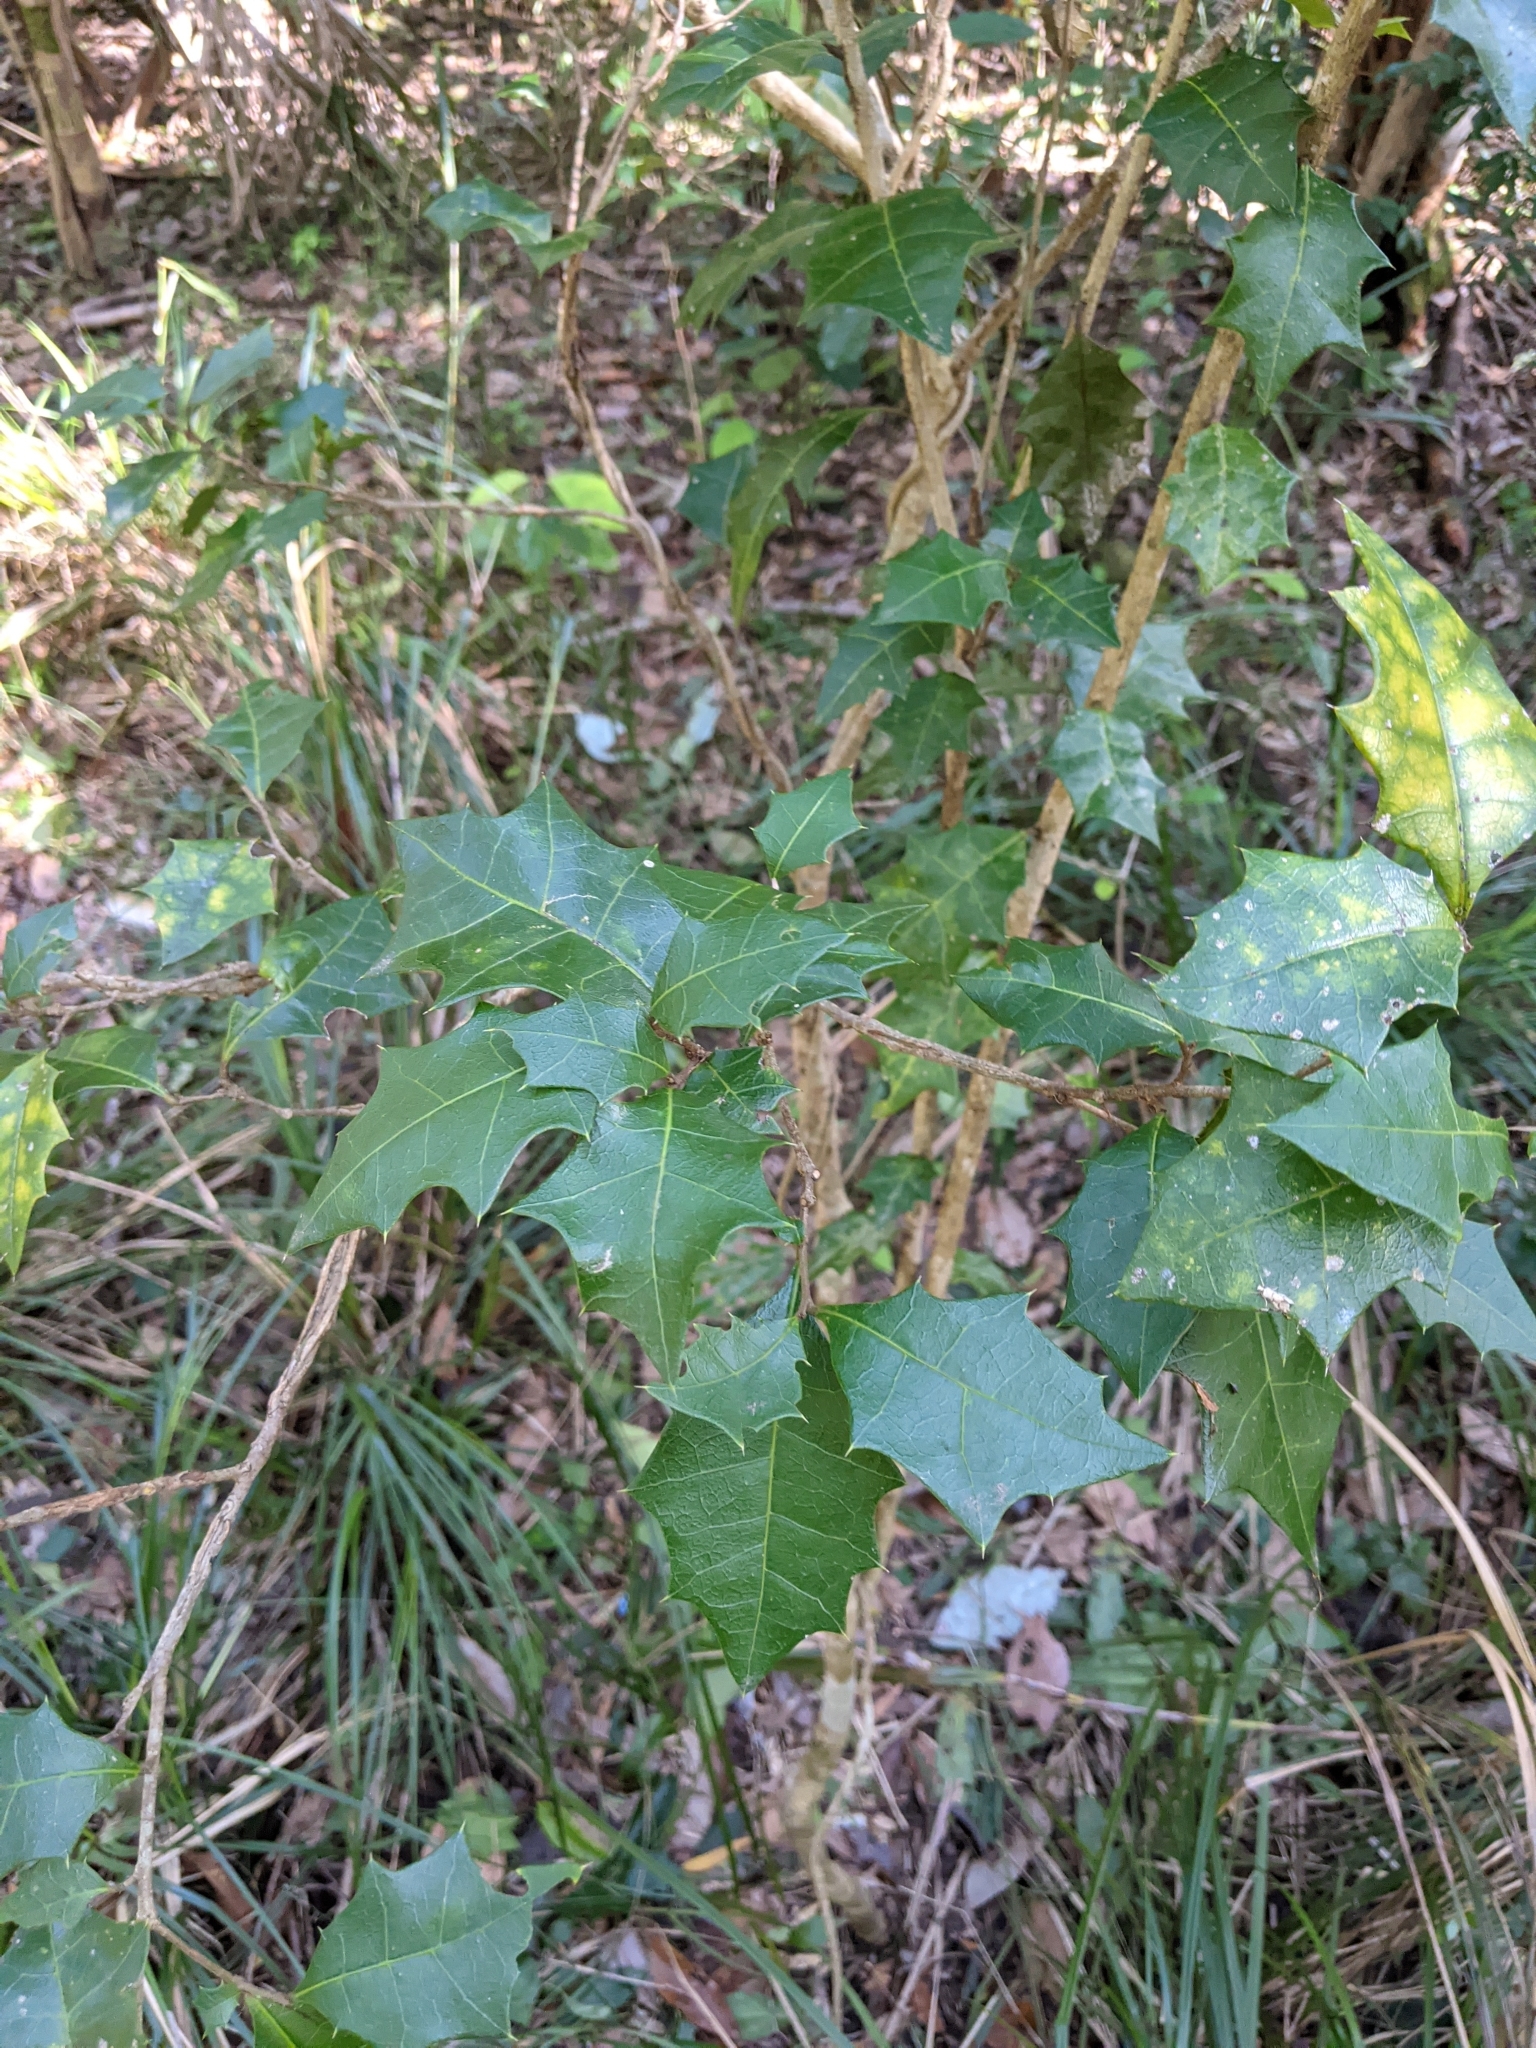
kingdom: Plantae
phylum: Tracheophyta
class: Magnoliopsida
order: Malpighiales
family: Euphorbiaceae
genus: Alchornea
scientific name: Alchornea ilicifolia
